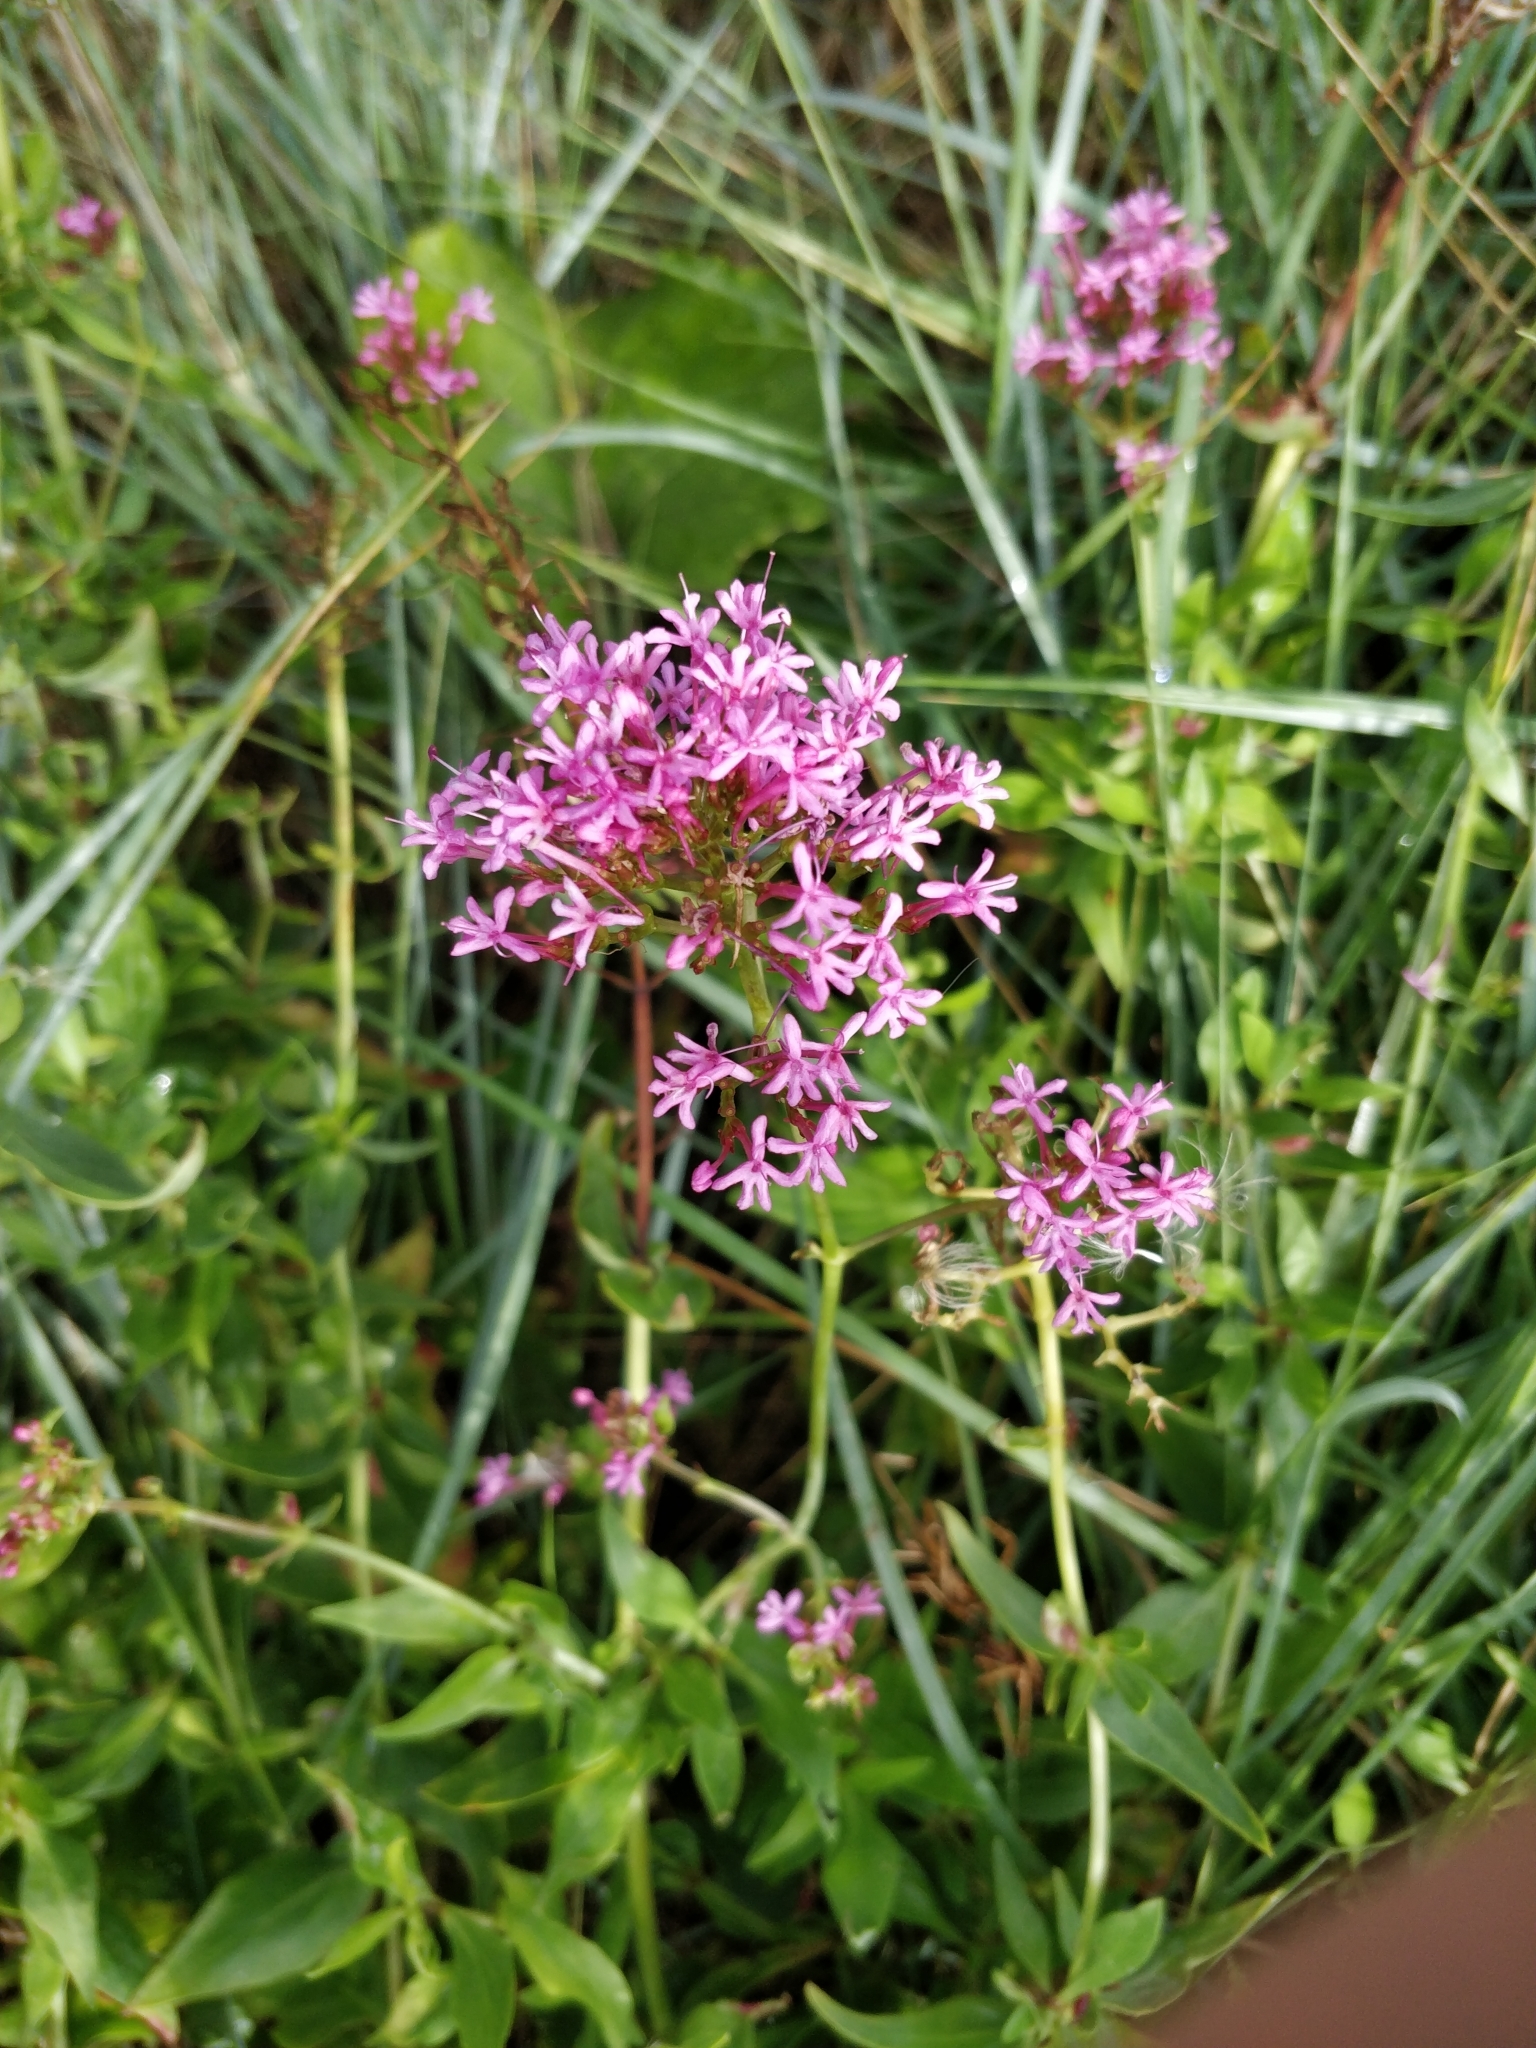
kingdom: Plantae
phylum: Tracheophyta
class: Magnoliopsida
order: Dipsacales
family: Caprifoliaceae
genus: Centranthus
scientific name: Centranthus ruber
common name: Red valerian
